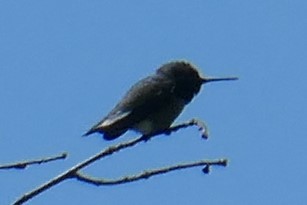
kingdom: Animalia
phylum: Chordata
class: Aves
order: Apodiformes
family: Trochilidae
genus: Calypte
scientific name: Calypte anna
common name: Anna's hummingbird
